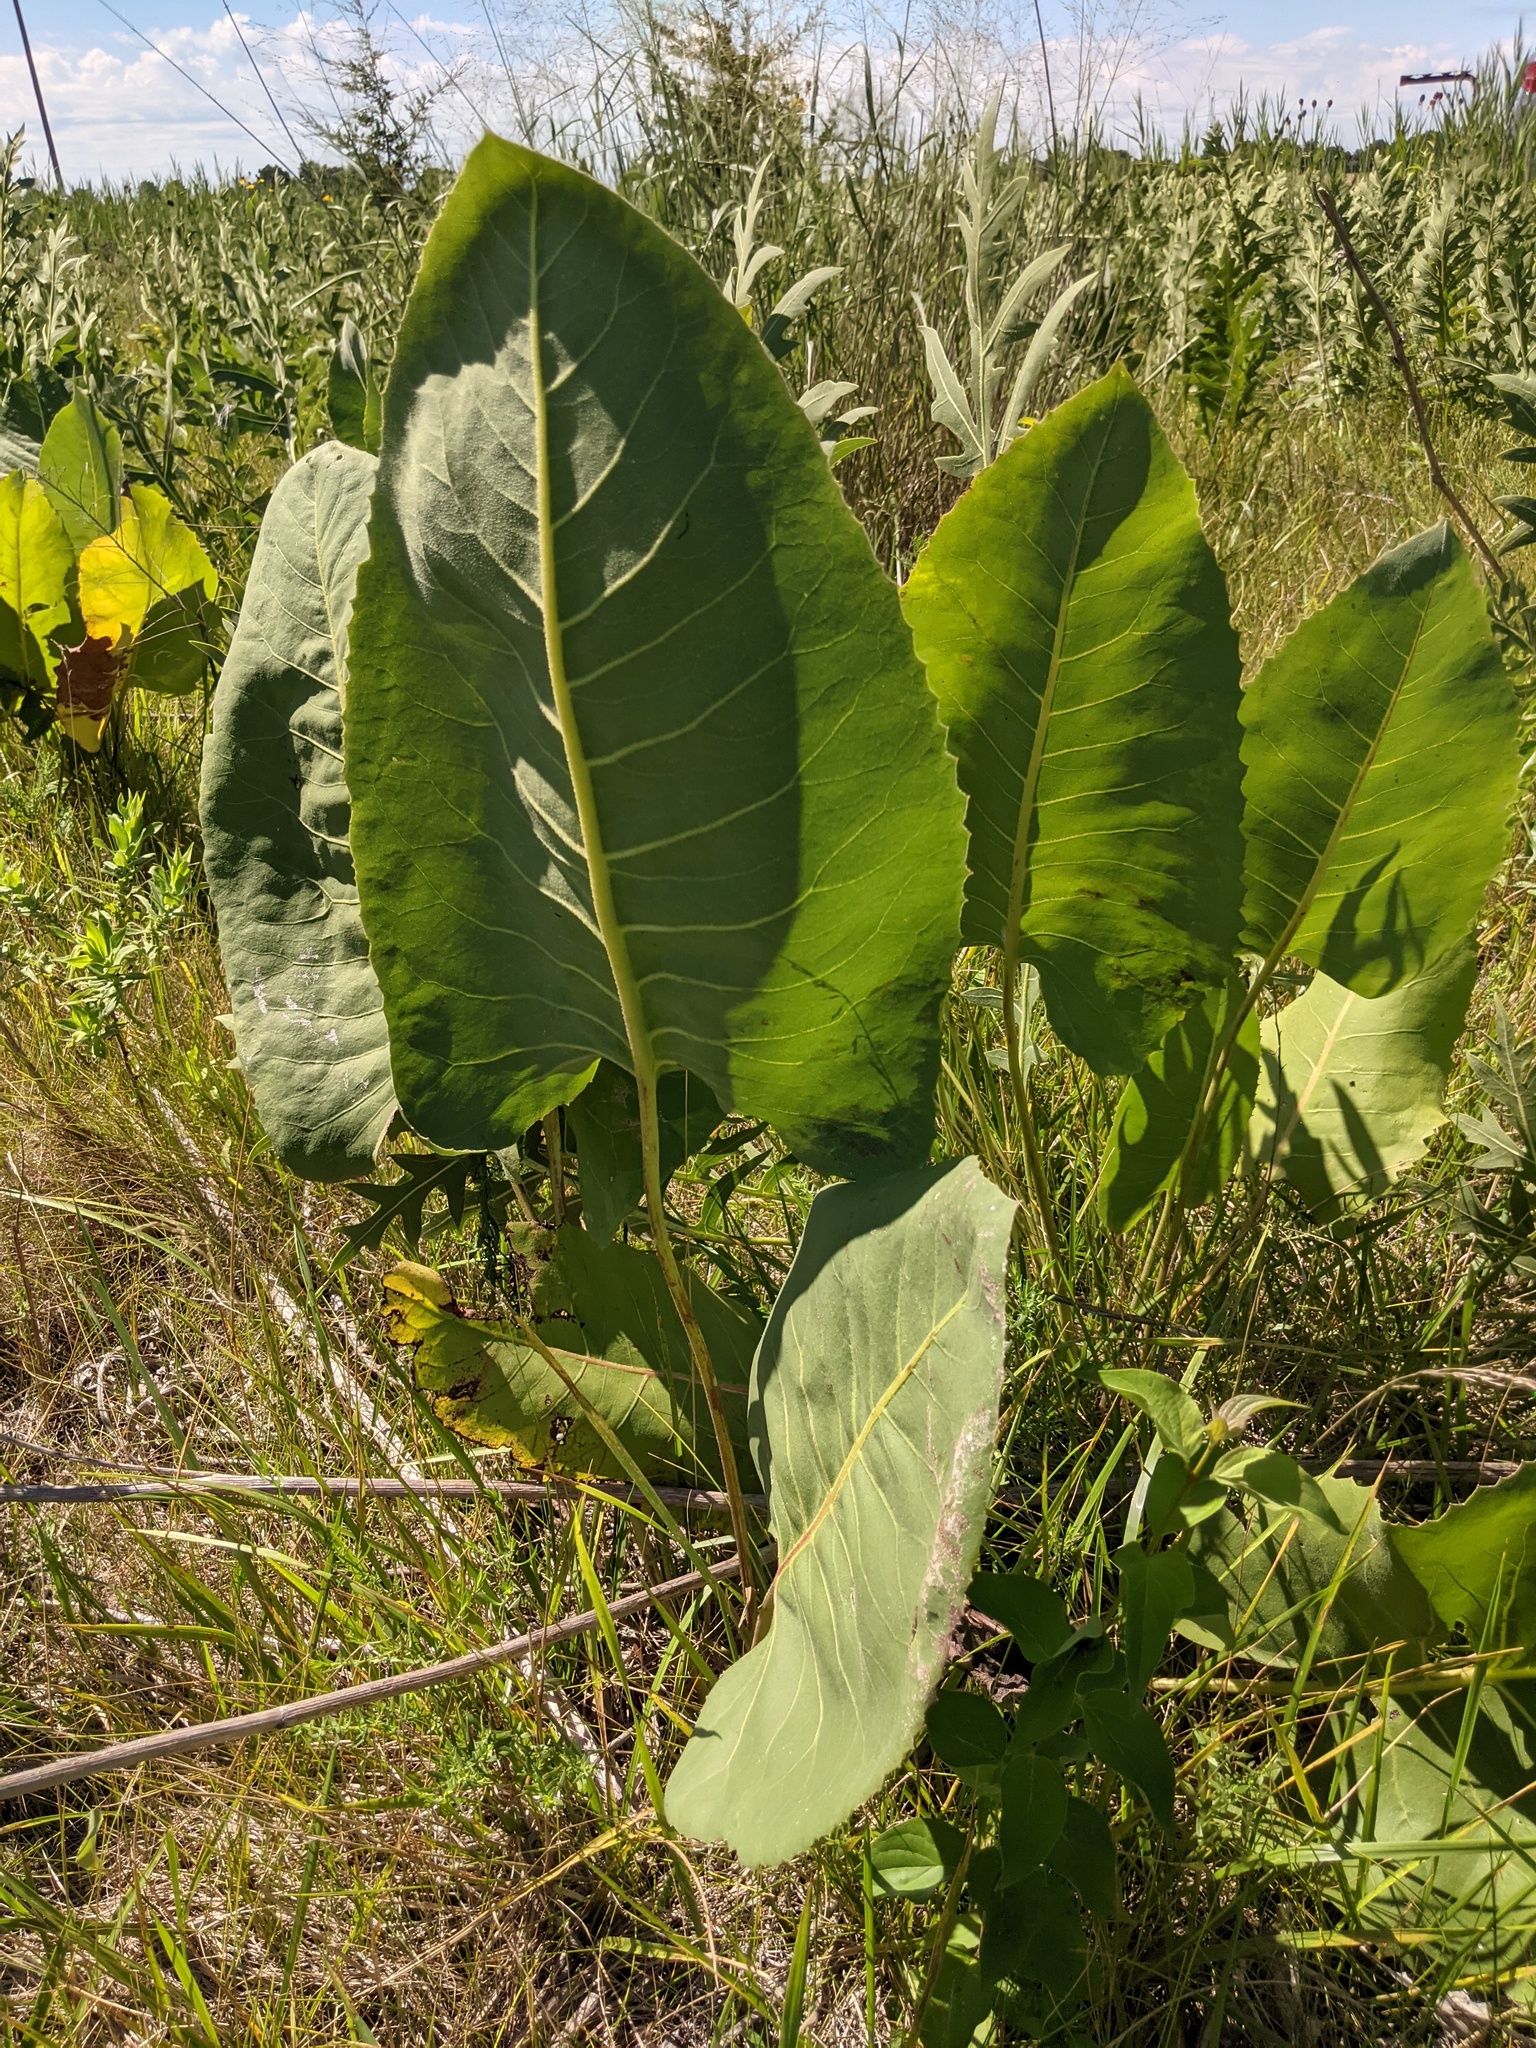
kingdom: Plantae
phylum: Tracheophyta
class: Magnoliopsida
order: Asterales
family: Asteraceae
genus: Silphium
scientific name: Silphium terebinthinaceum
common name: Basal-leaf rosinweed
